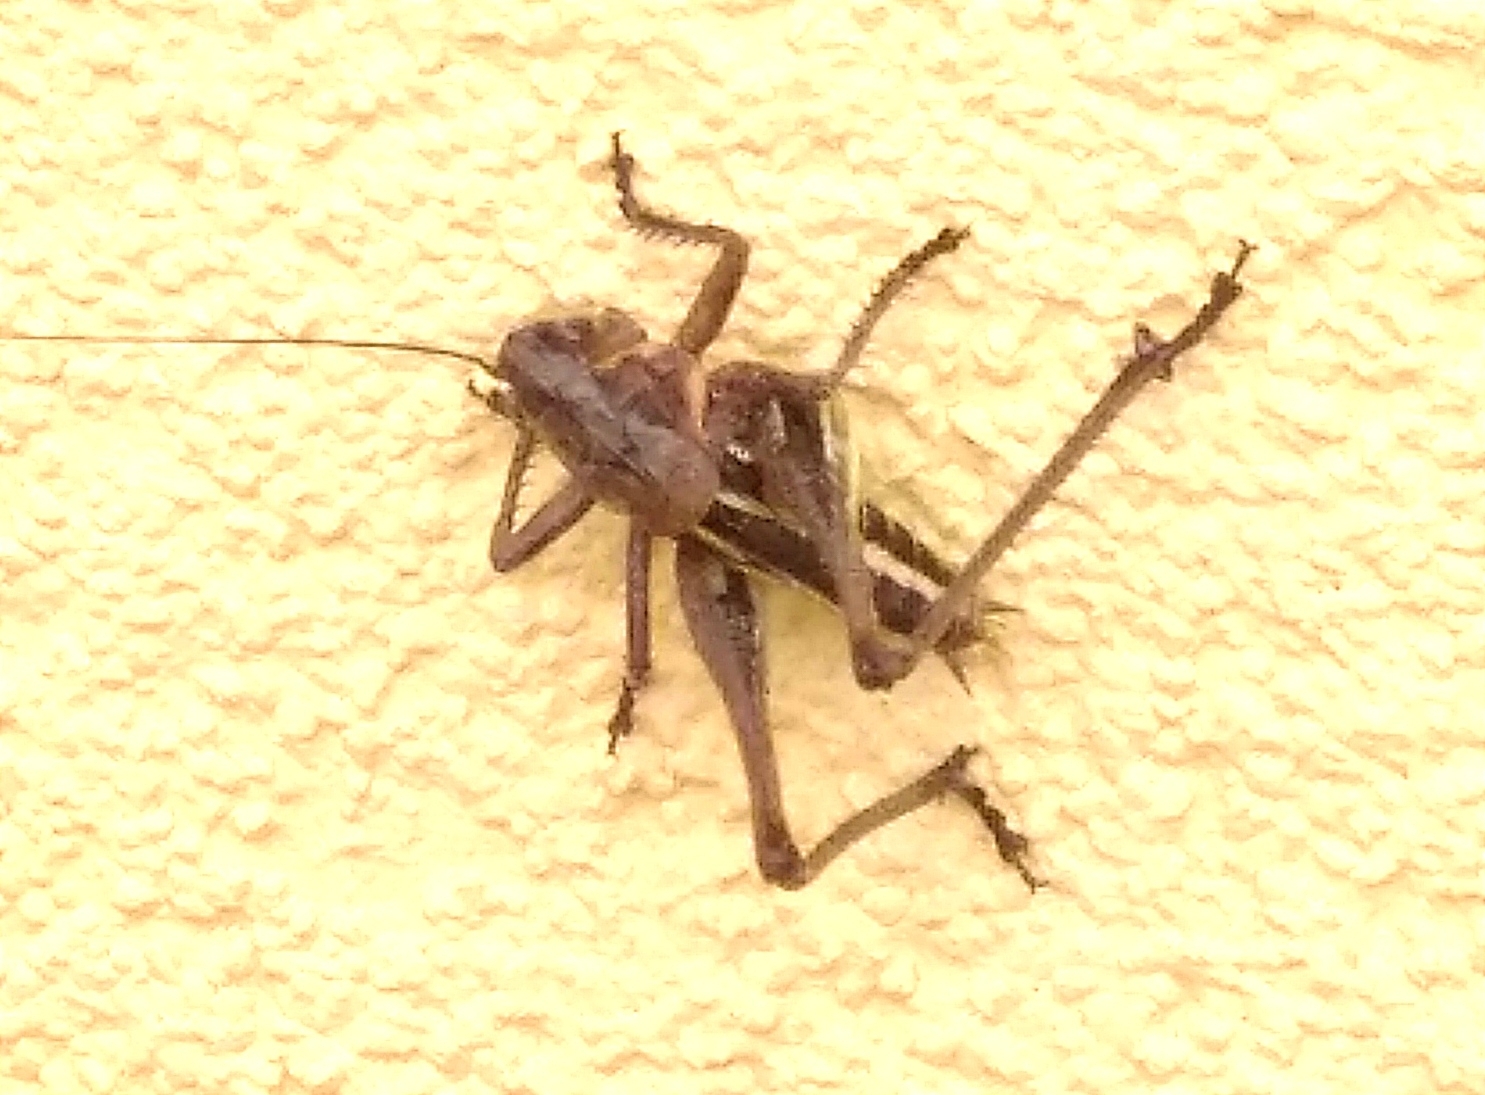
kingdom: Animalia
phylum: Arthropoda
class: Insecta
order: Orthoptera
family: Tettigoniidae
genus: Decticus
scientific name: Decticus albifrons
